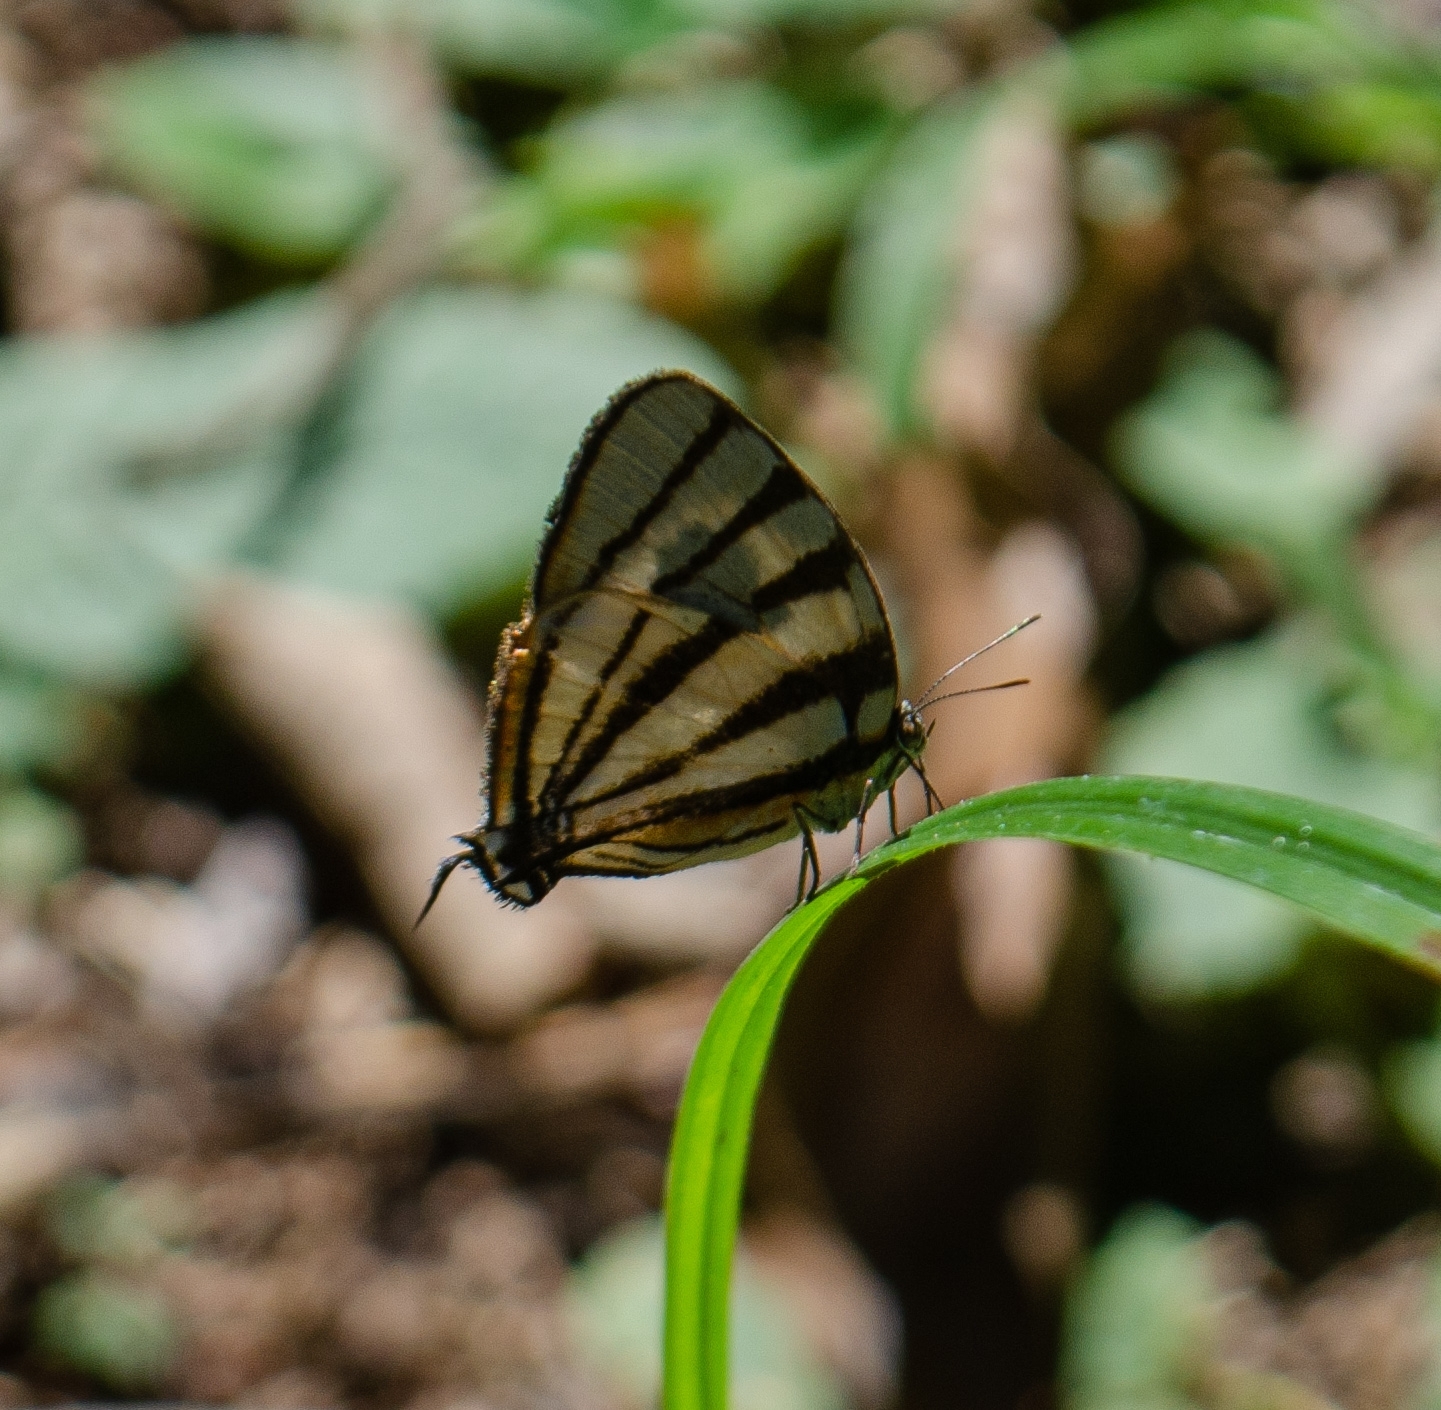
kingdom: Animalia
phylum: Arthropoda
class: Insecta
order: Lepidoptera
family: Lycaenidae
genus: Arawacus
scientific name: Arawacus separata
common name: Separated stripestreak
